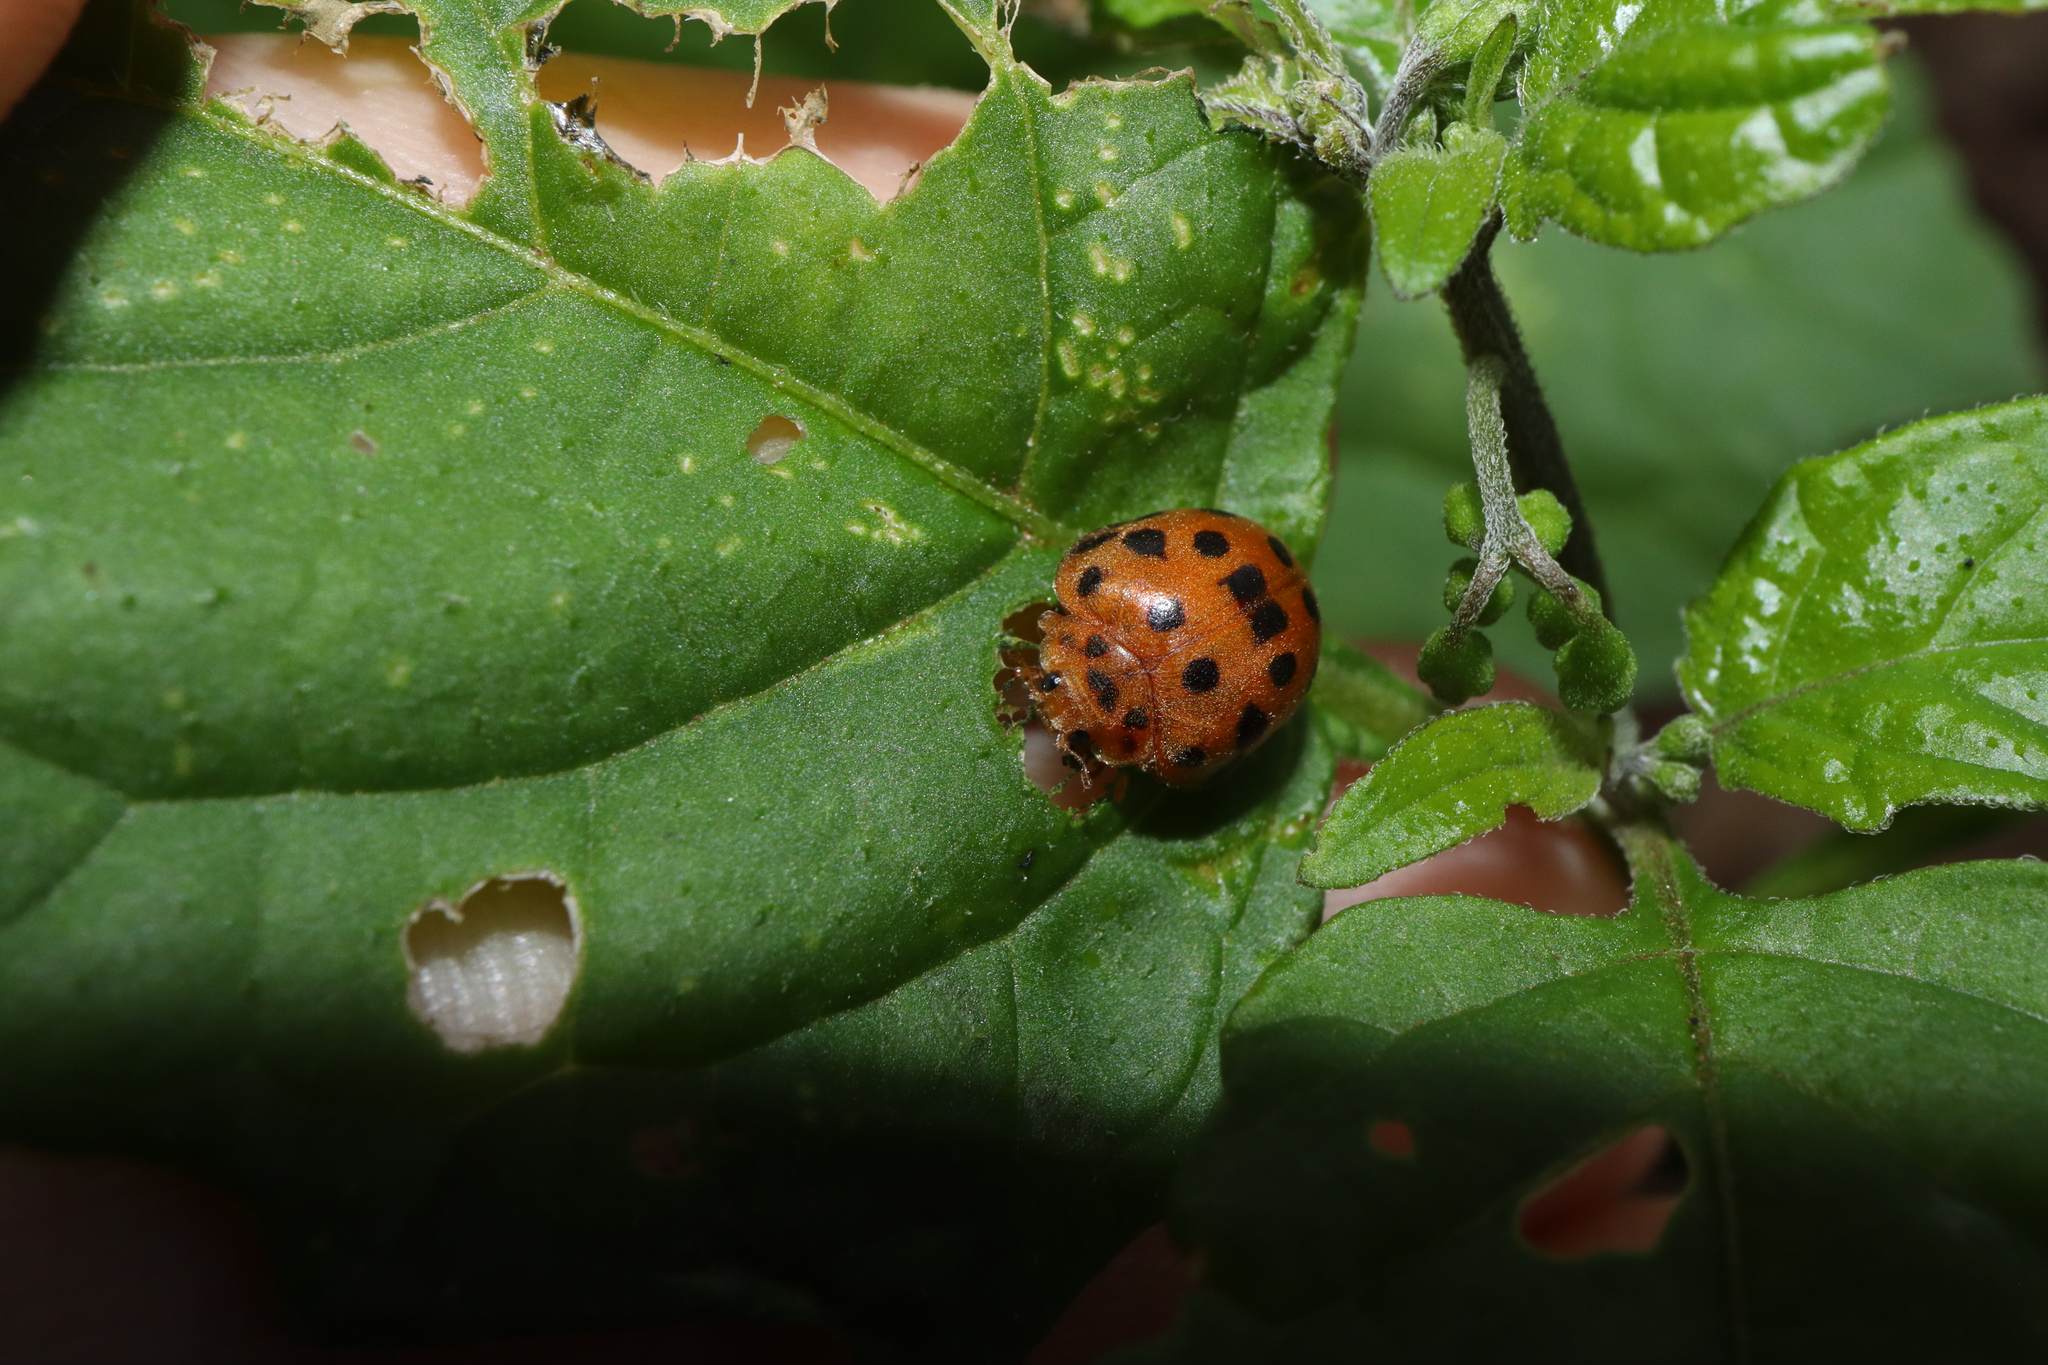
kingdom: Animalia
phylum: Arthropoda
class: Insecta
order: Coleoptera
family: Coccinellidae
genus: Henosepilachna
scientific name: Henosepilachna vigintioctopunctata
